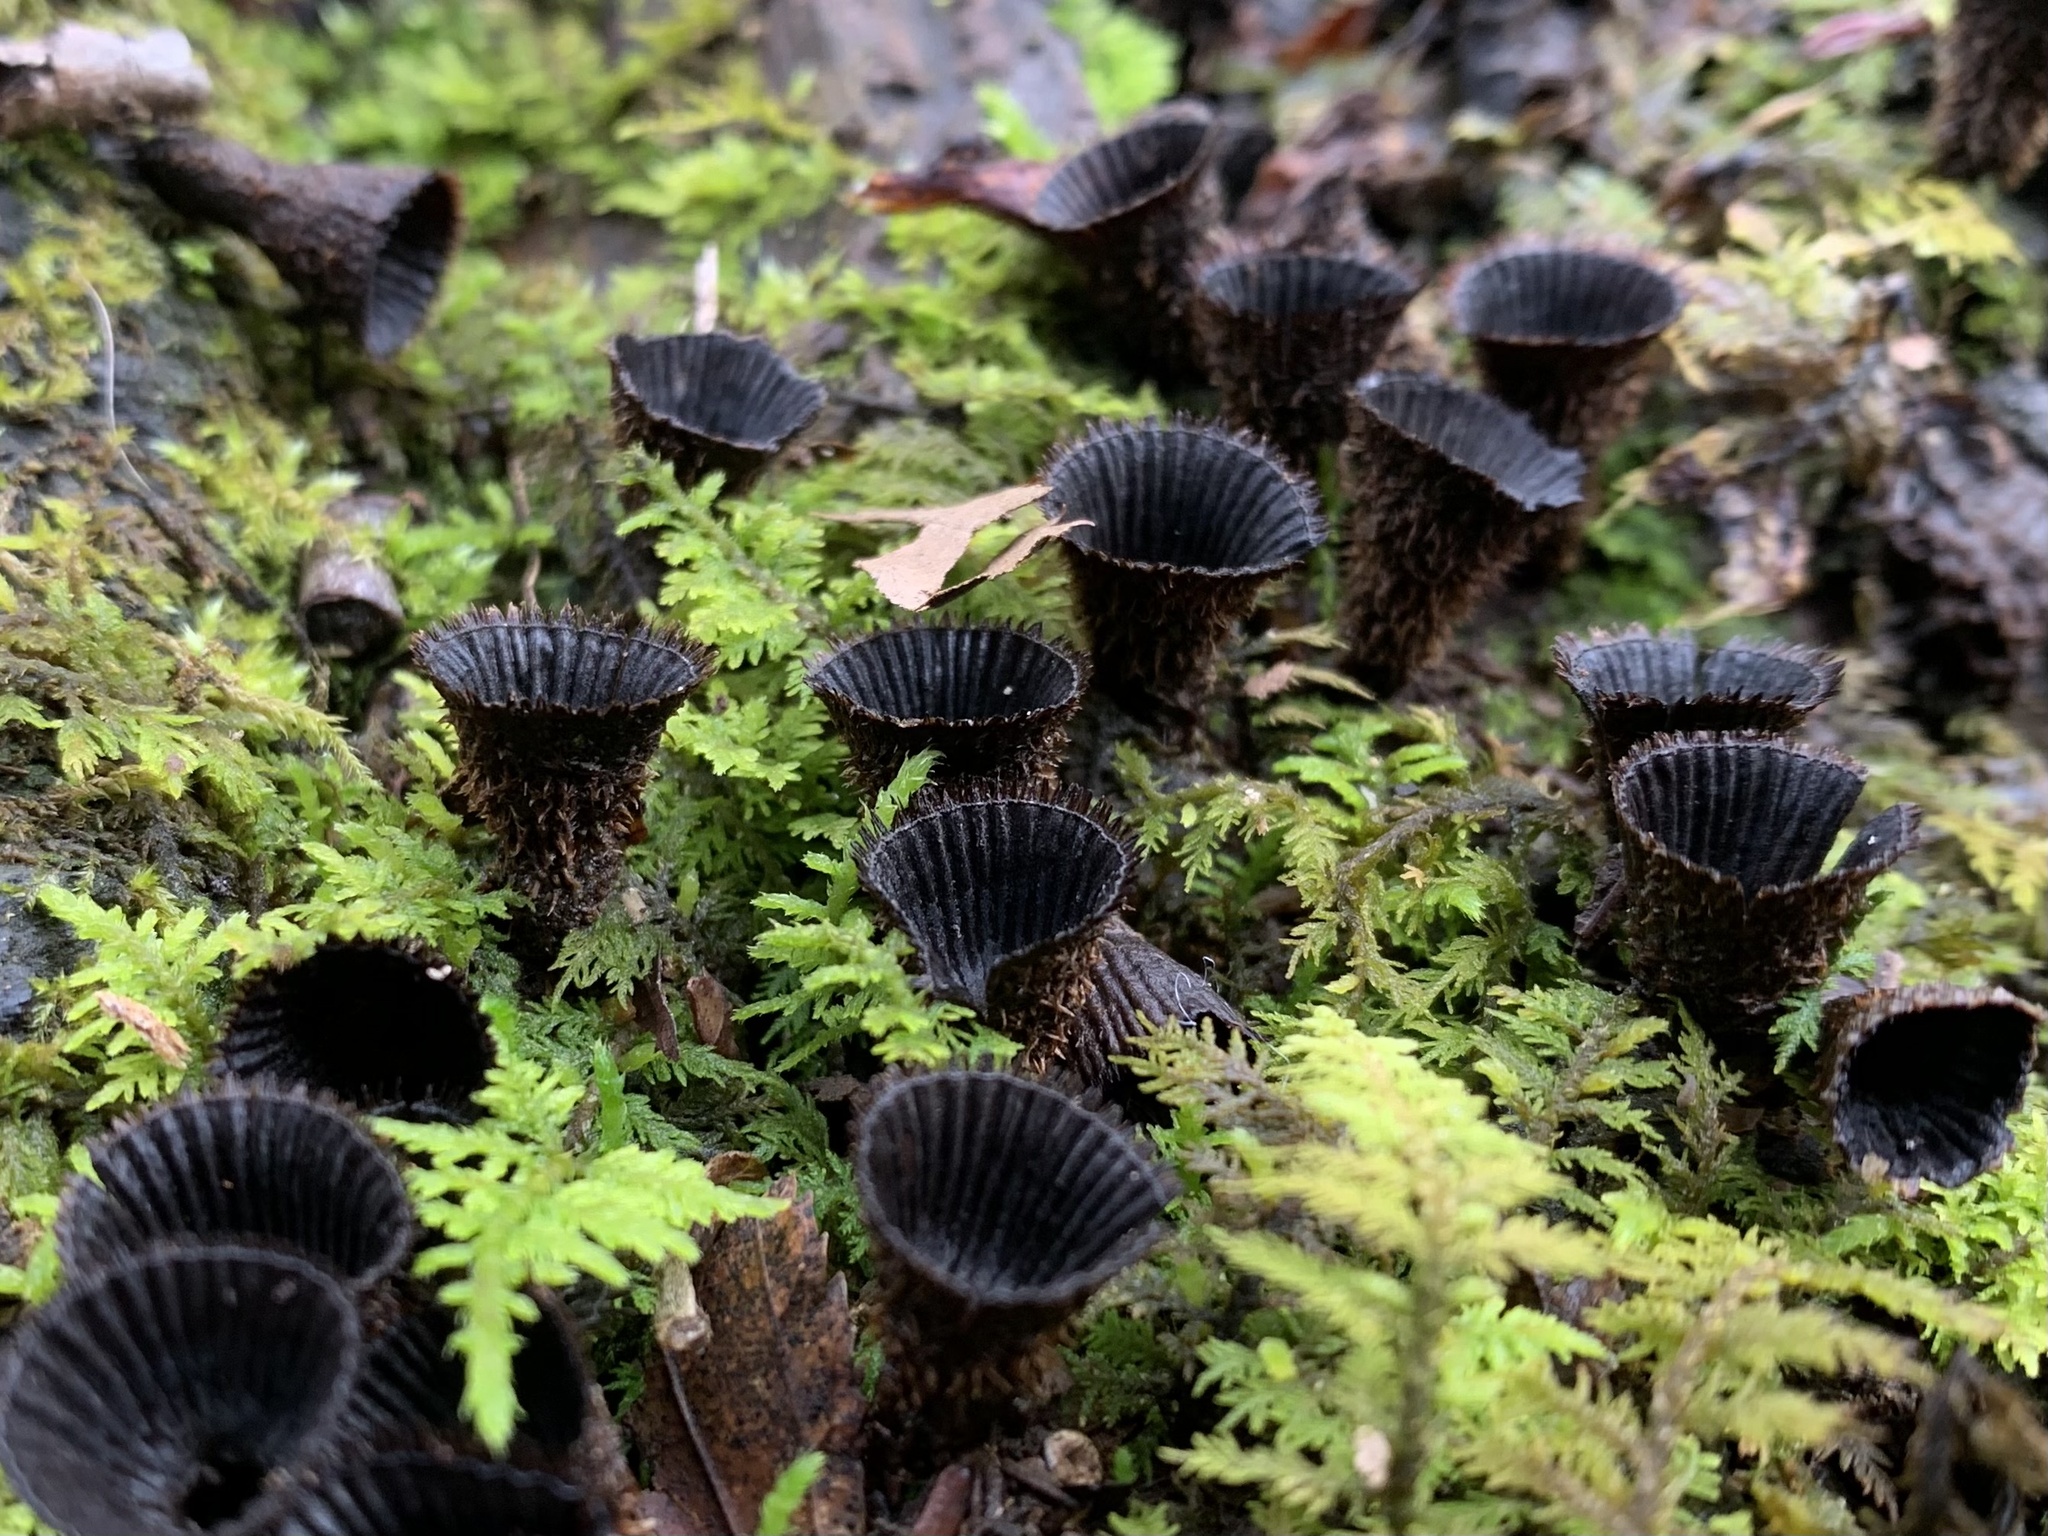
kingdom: Fungi
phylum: Basidiomycota
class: Agaricomycetes
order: Agaricales
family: Agaricaceae
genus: Cyathus
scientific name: Cyathus striatus
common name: Fluted bird's nest
